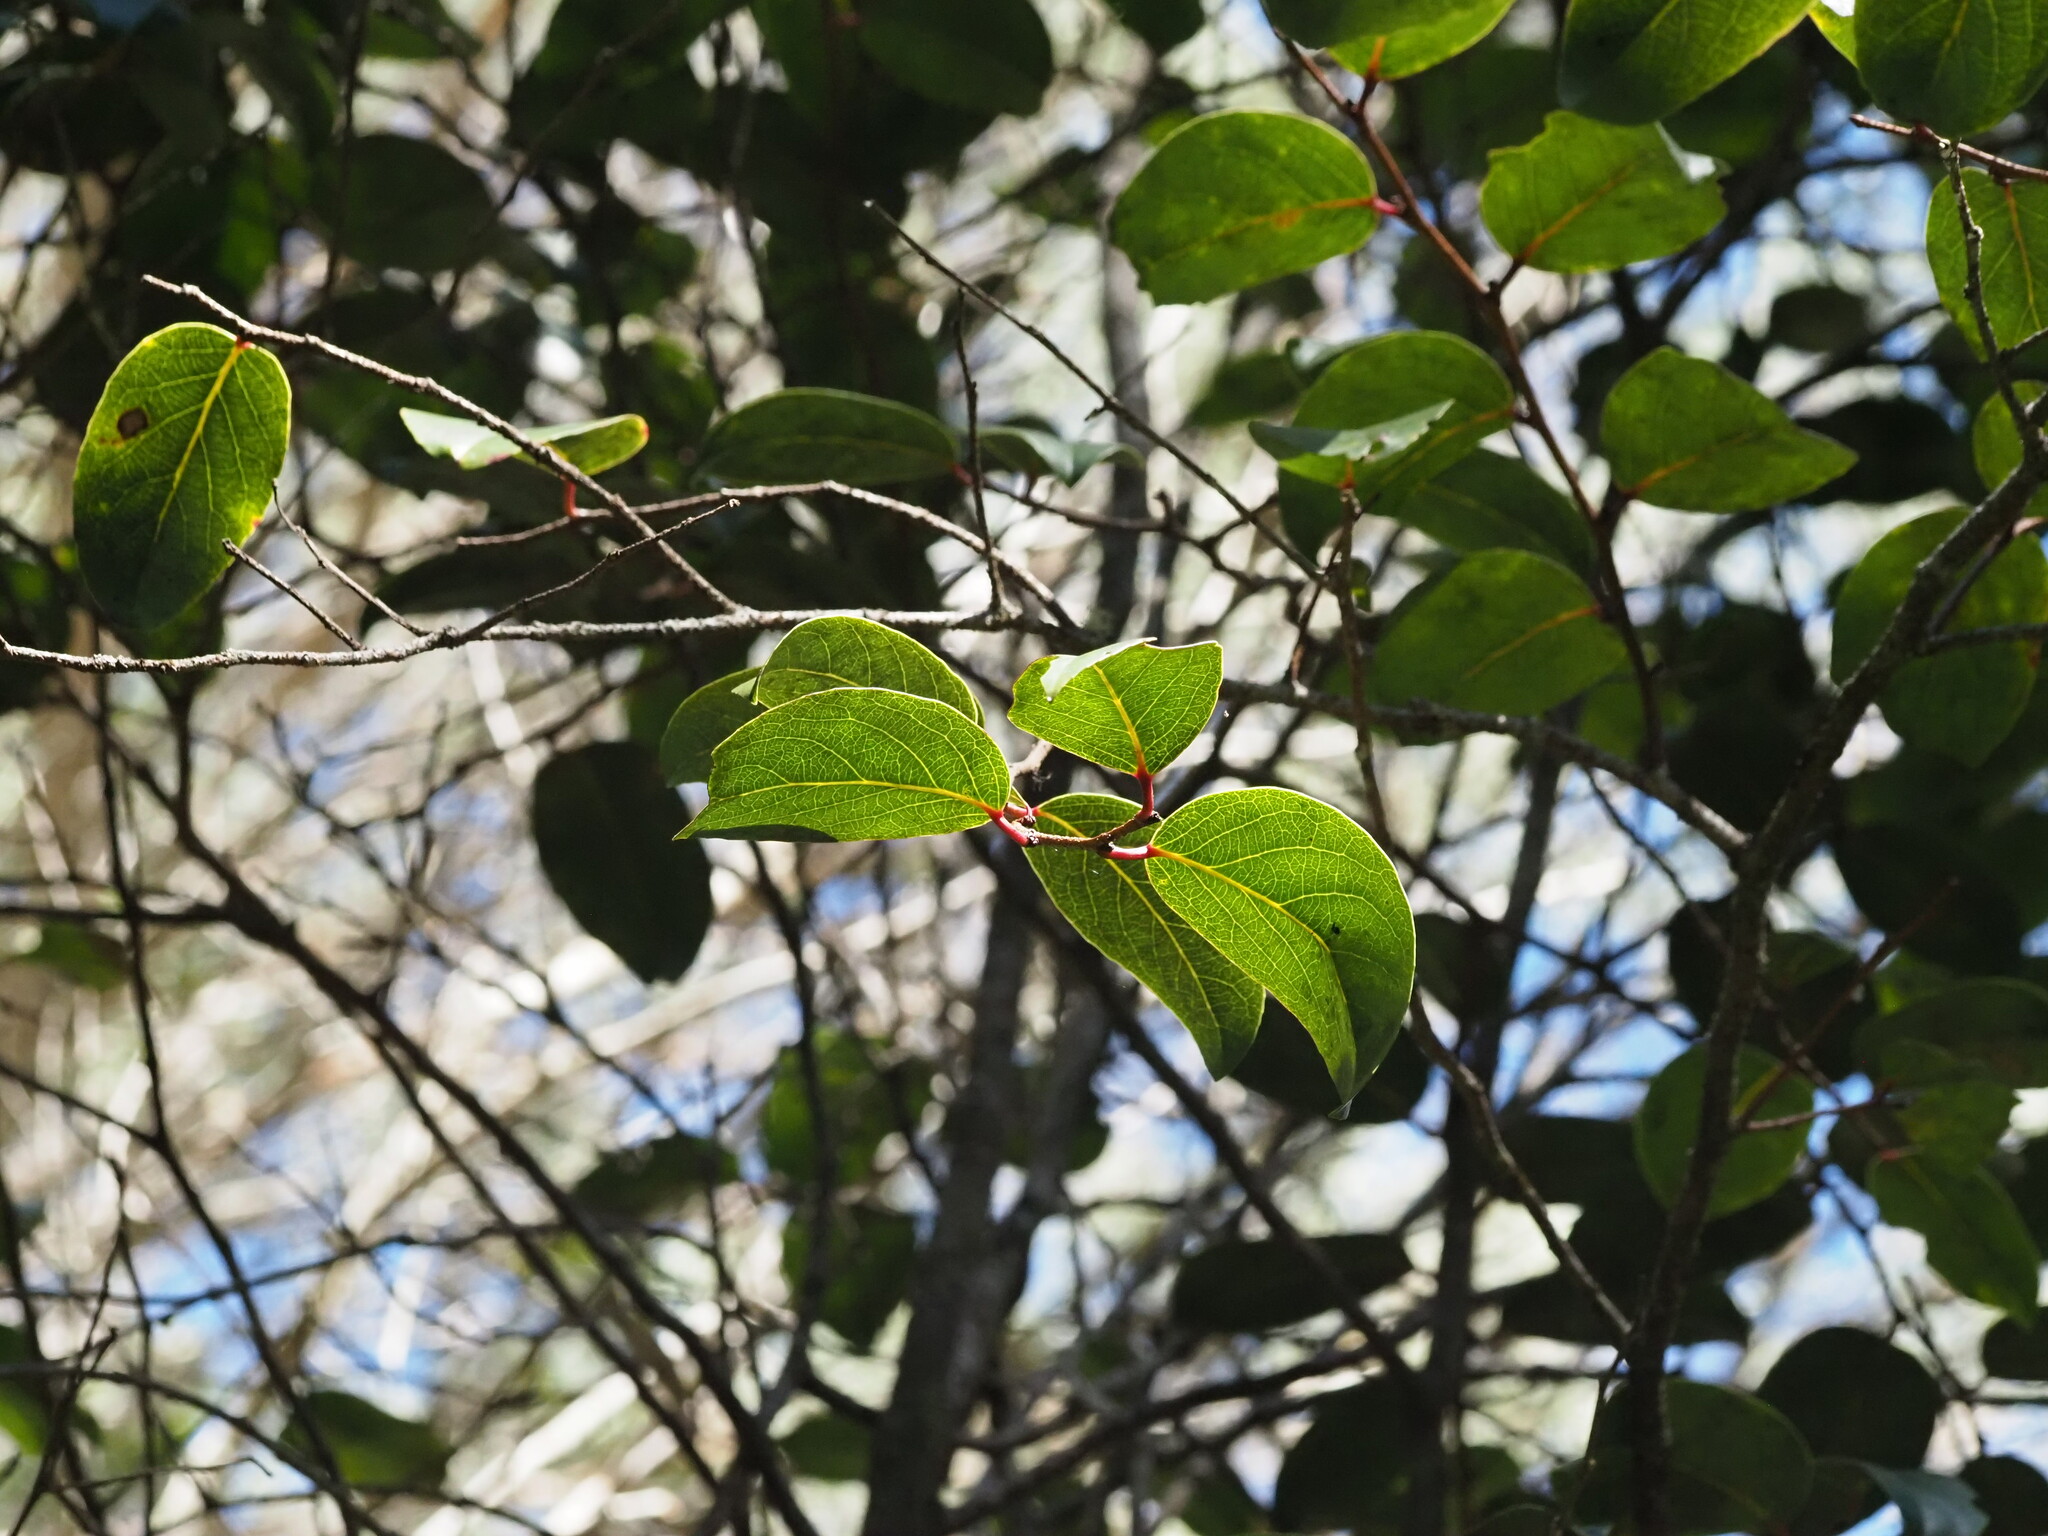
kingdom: Plantae
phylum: Tracheophyta
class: Magnoliopsida
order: Malpighiales
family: Salicaceae
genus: Xylosma
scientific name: Xylosma hawaiense
